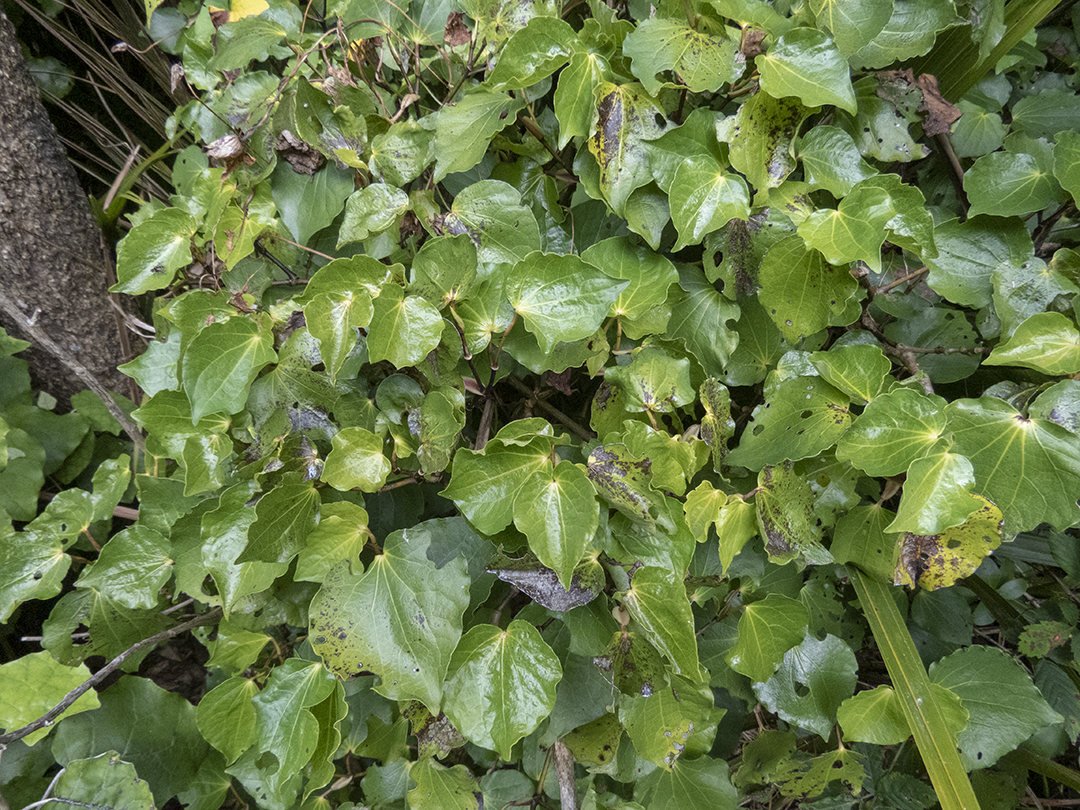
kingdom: Plantae
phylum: Tracheophyta
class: Magnoliopsida
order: Piperales
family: Piperaceae
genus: Macropiper
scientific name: Macropiper excelsum
